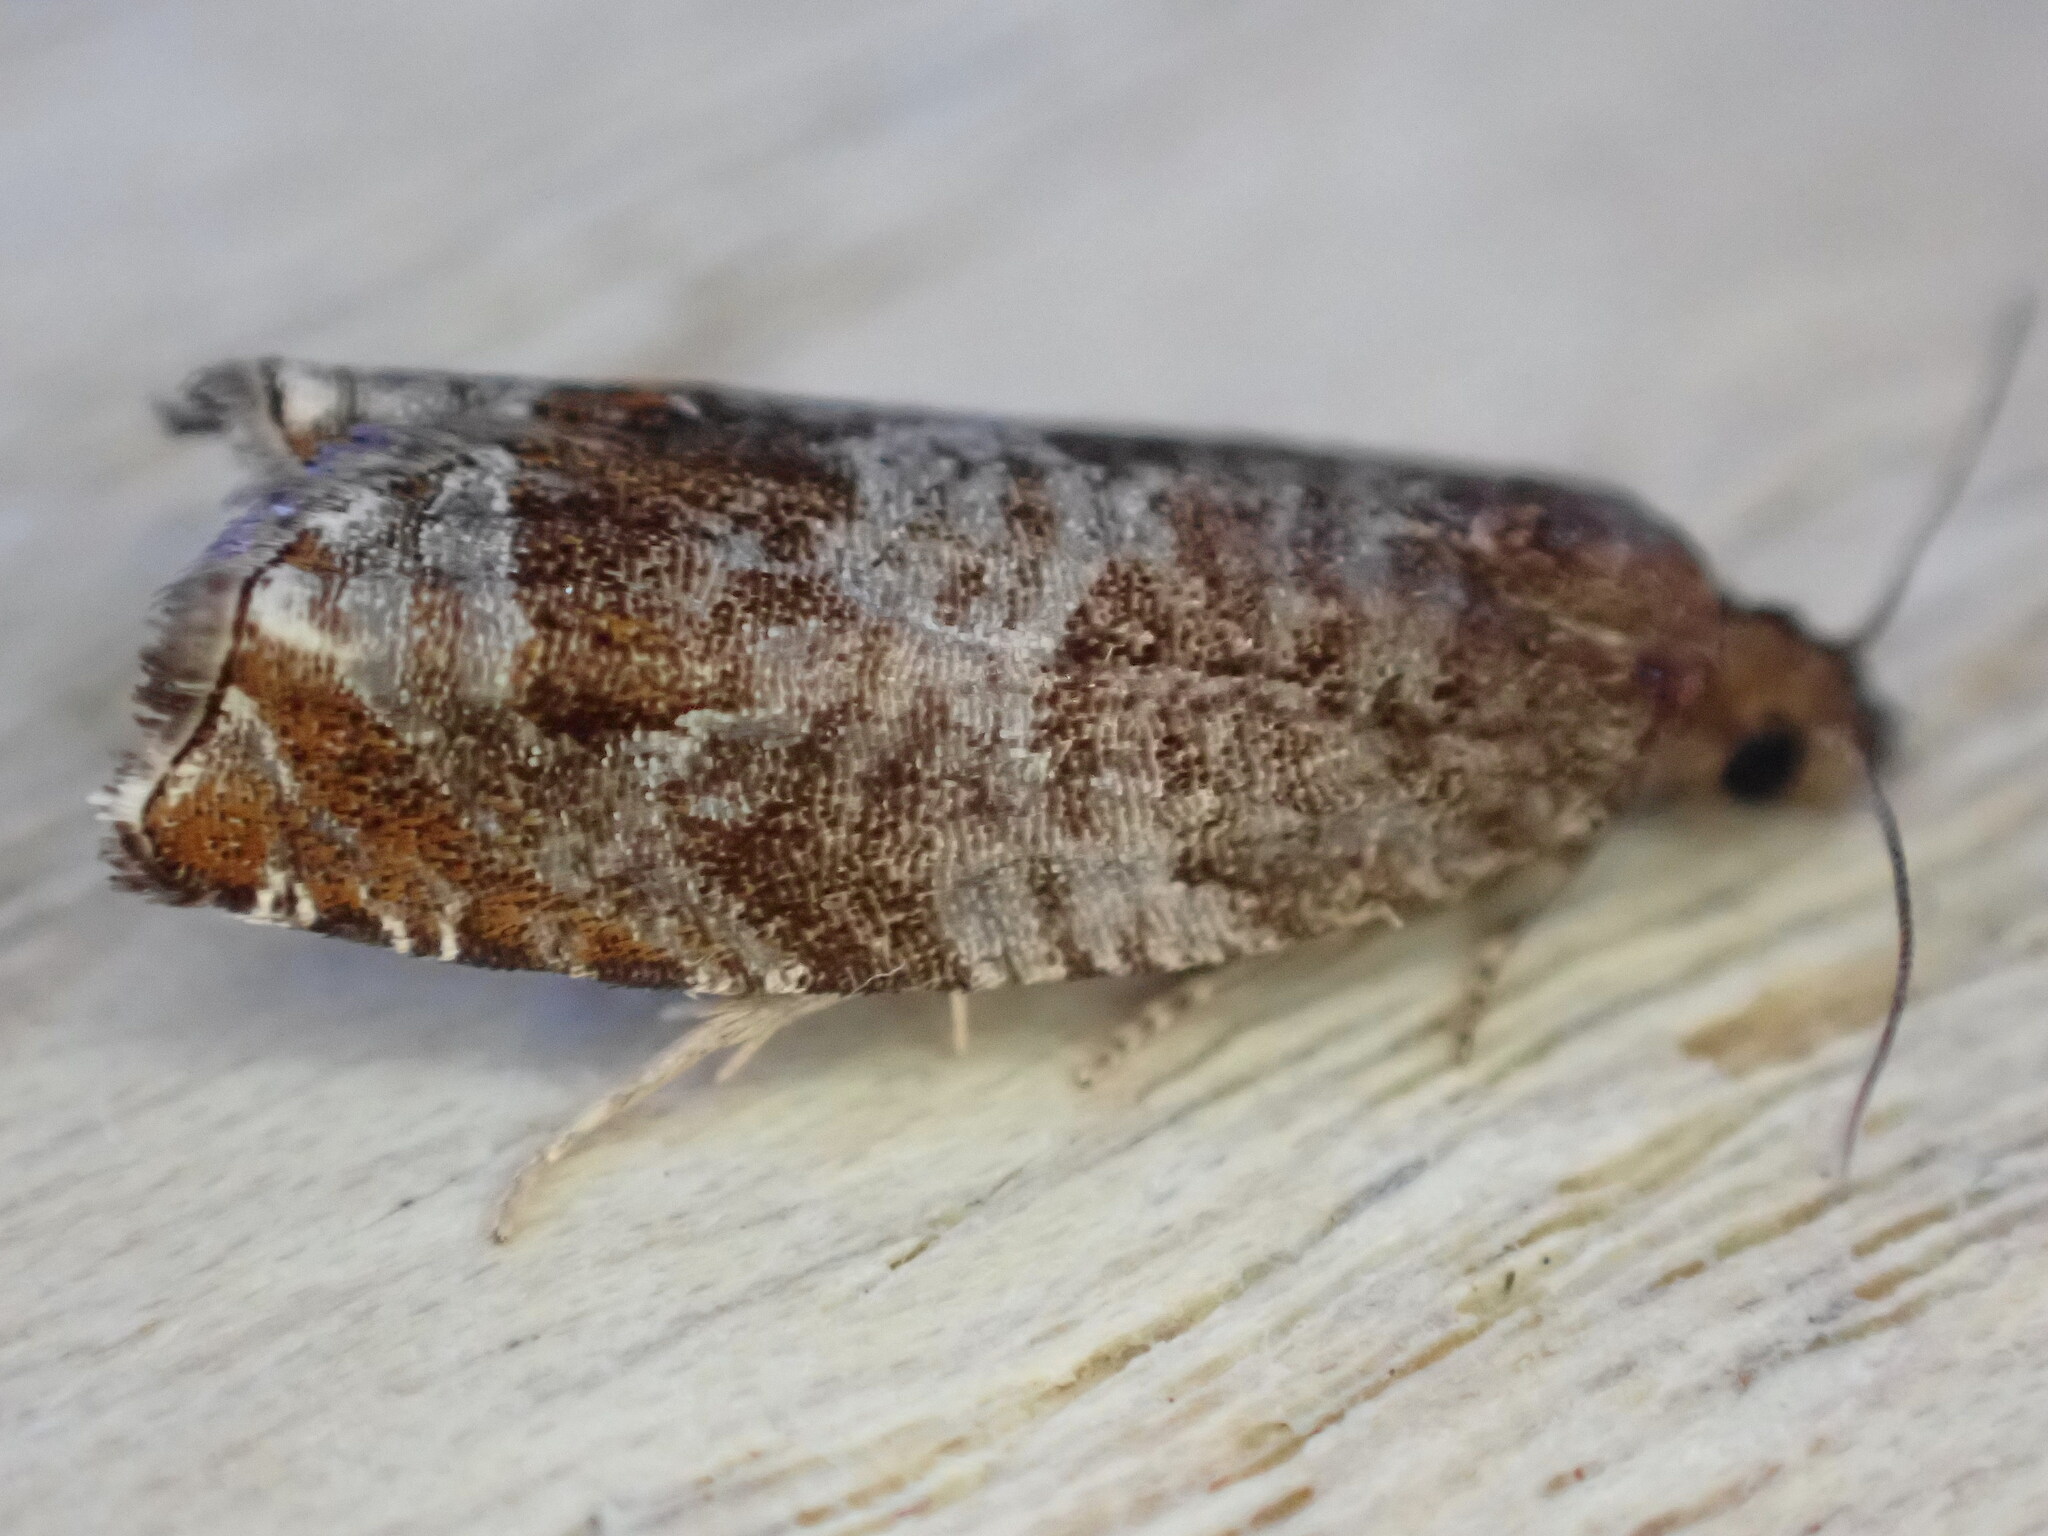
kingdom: Animalia
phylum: Arthropoda
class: Insecta
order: Lepidoptera
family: Tortricidae
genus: Ancylis
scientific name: Ancylis achatana
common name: Triangle-marked roller
